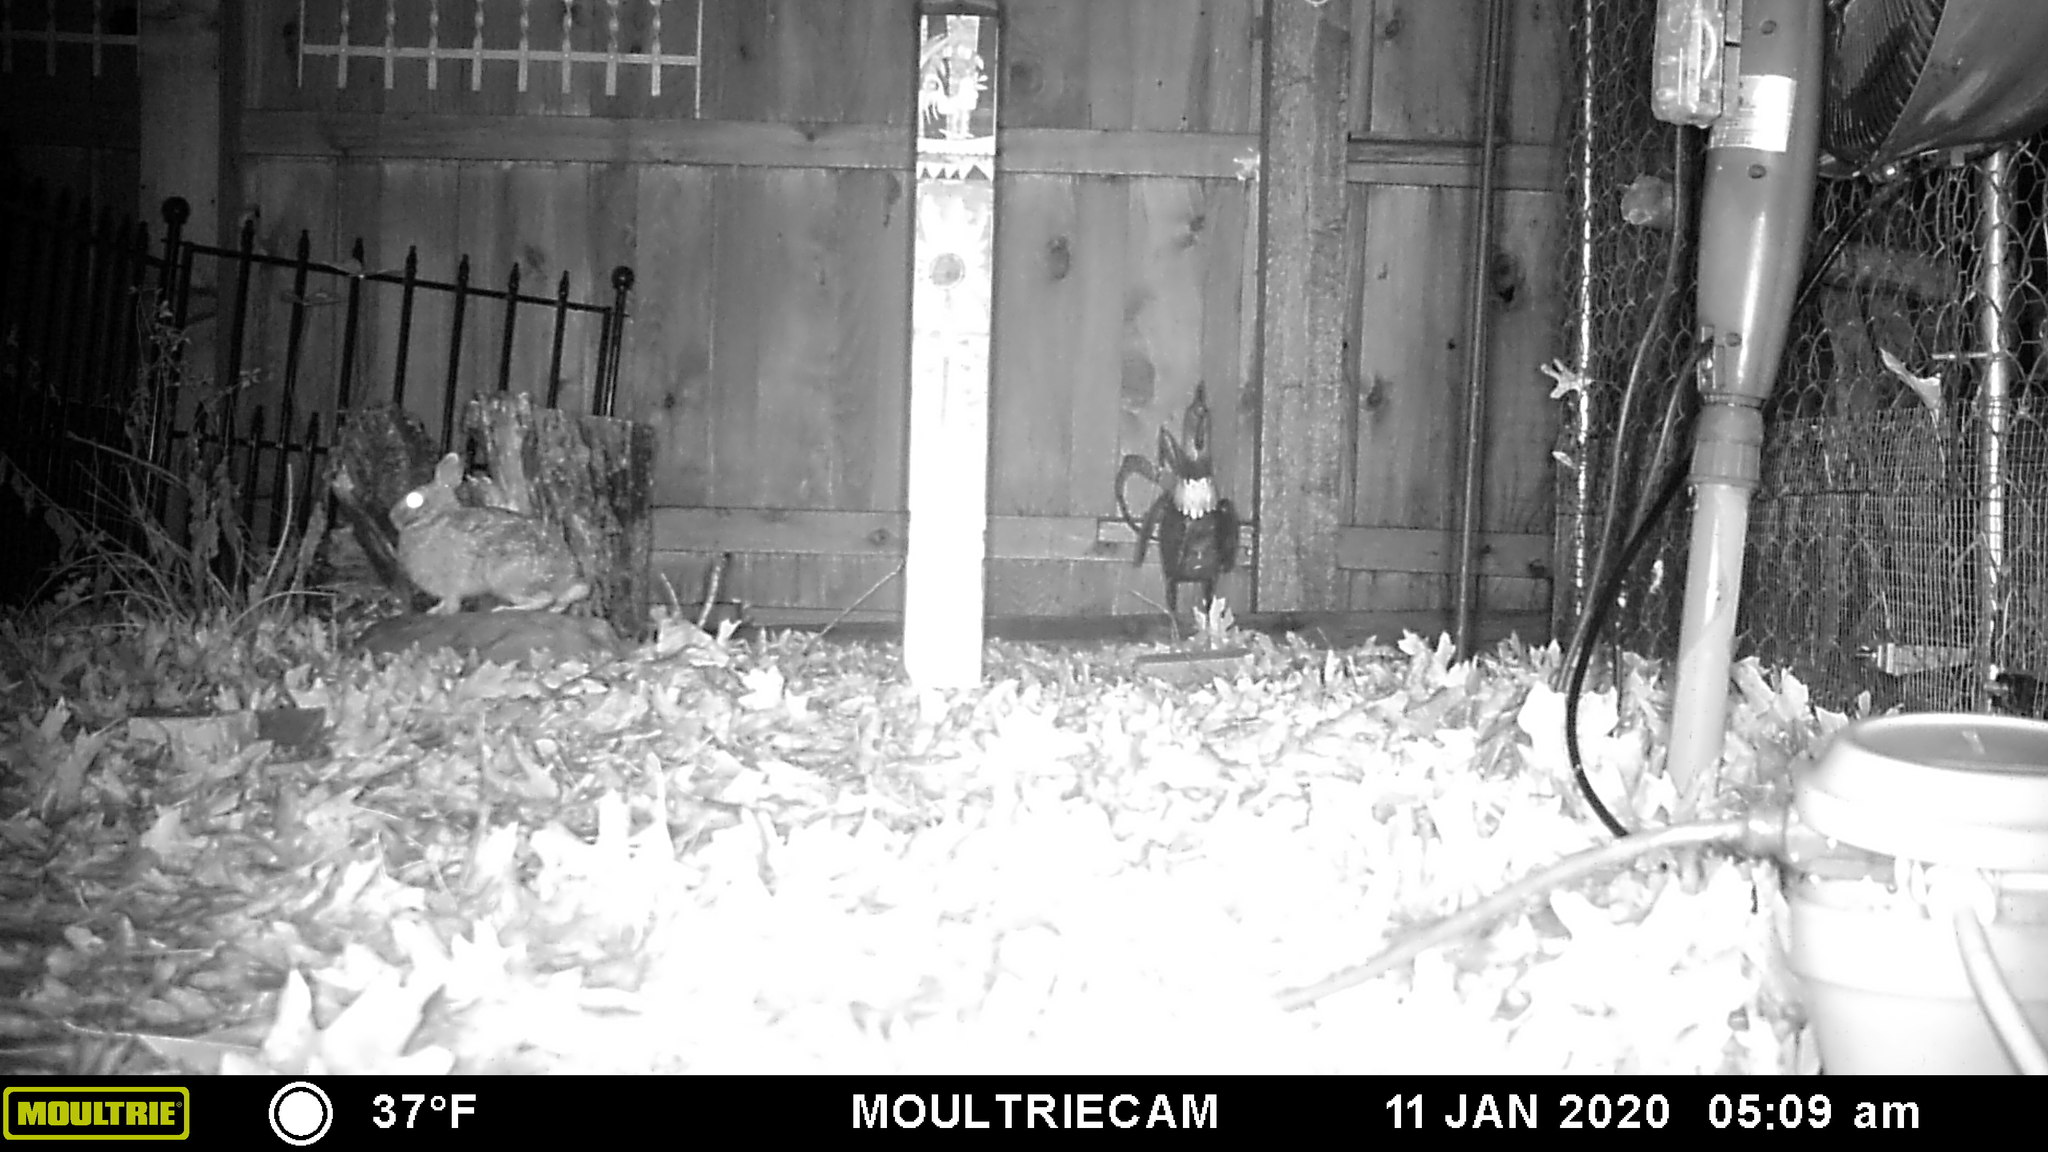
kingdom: Animalia
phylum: Chordata
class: Mammalia
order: Lagomorpha
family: Leporidae
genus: Sylvilagus
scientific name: Sylvilagus floridanus
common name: Eastern cottontail
